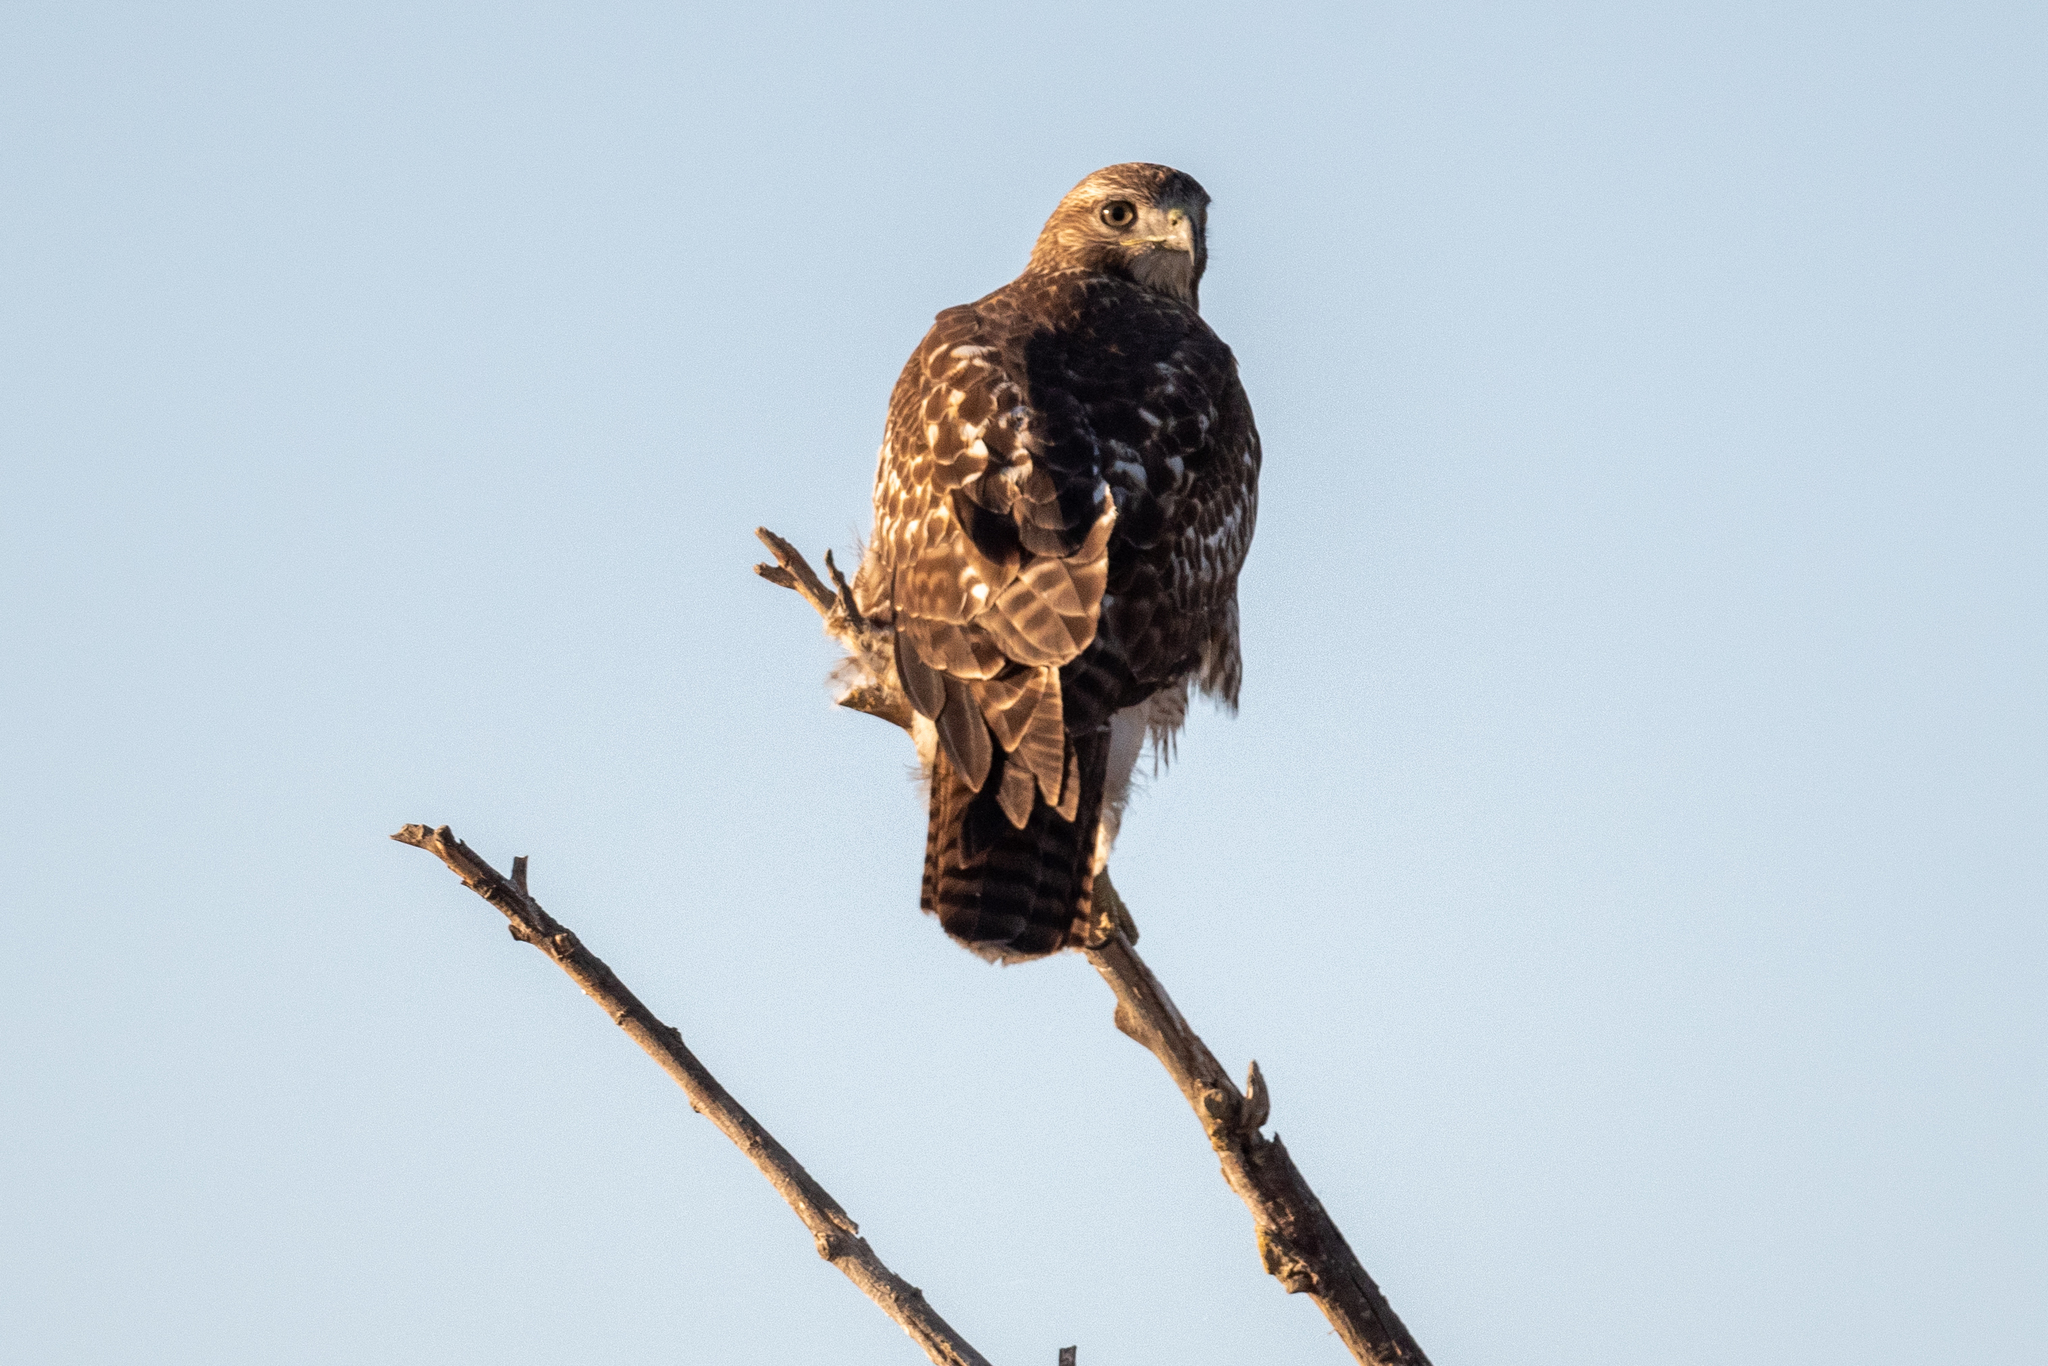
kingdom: Animalia
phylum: Chordata
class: Aves
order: Accipitriformes
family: Accipitridae
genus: Buteo
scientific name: Buteo jamaicensis
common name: Red-tailed hawk
